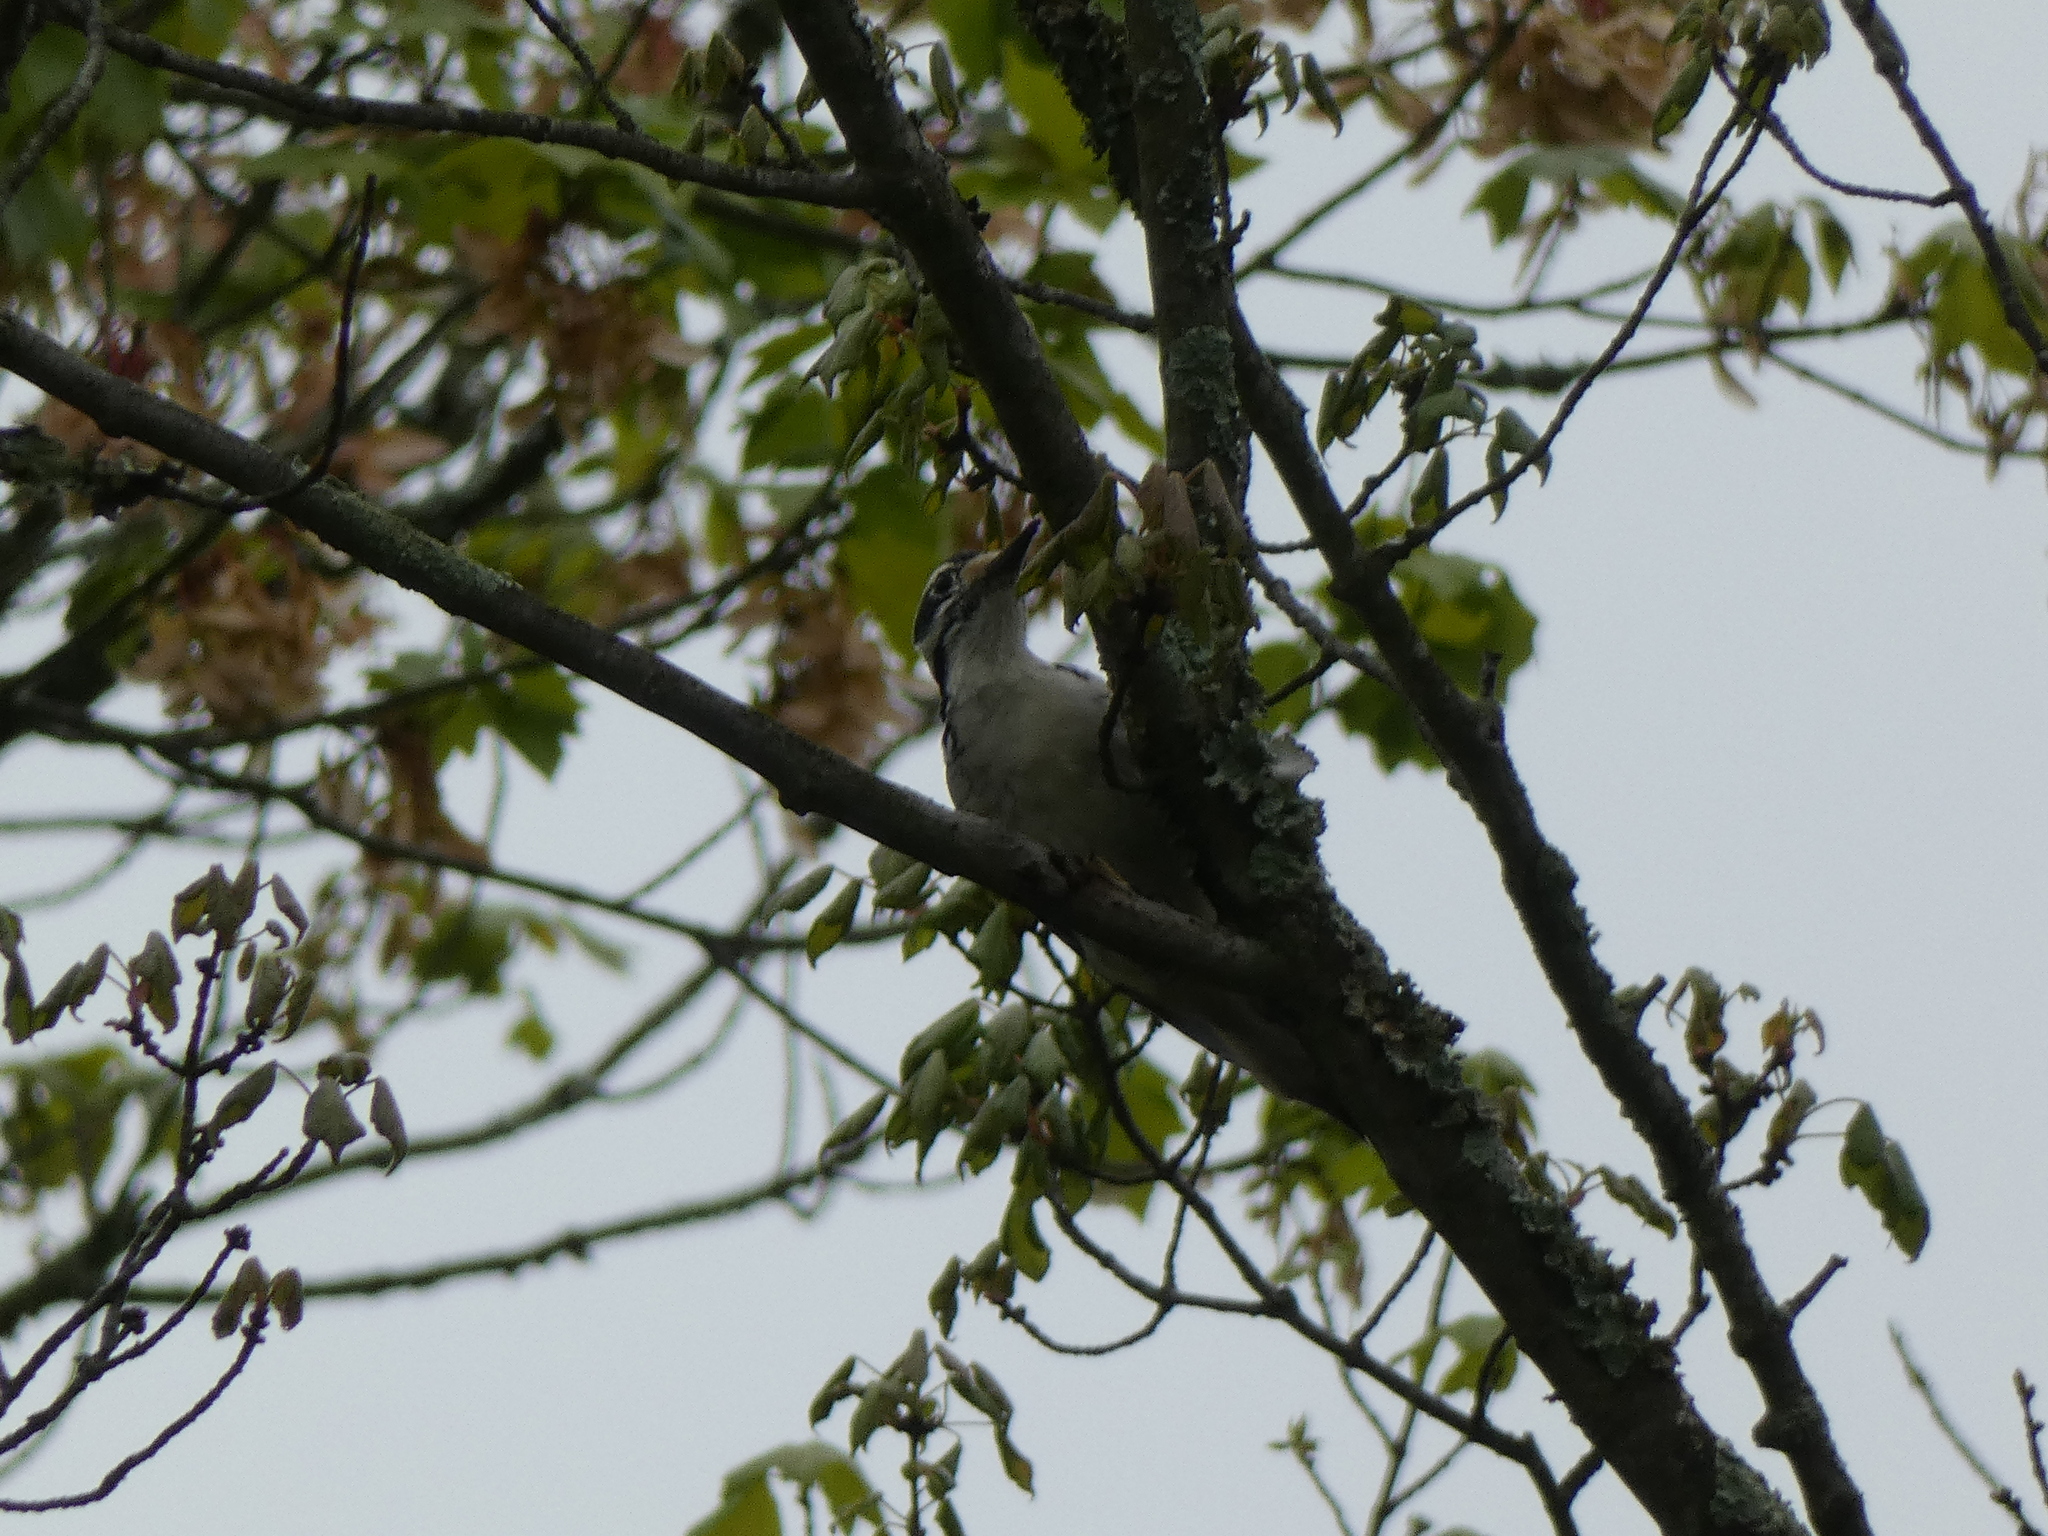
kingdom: Animalia
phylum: Chordata
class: Aves
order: Piciformes
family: Picidae
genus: Leuconotopicus
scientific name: Leuconotopicus villosus
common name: Hairy woodpecker
